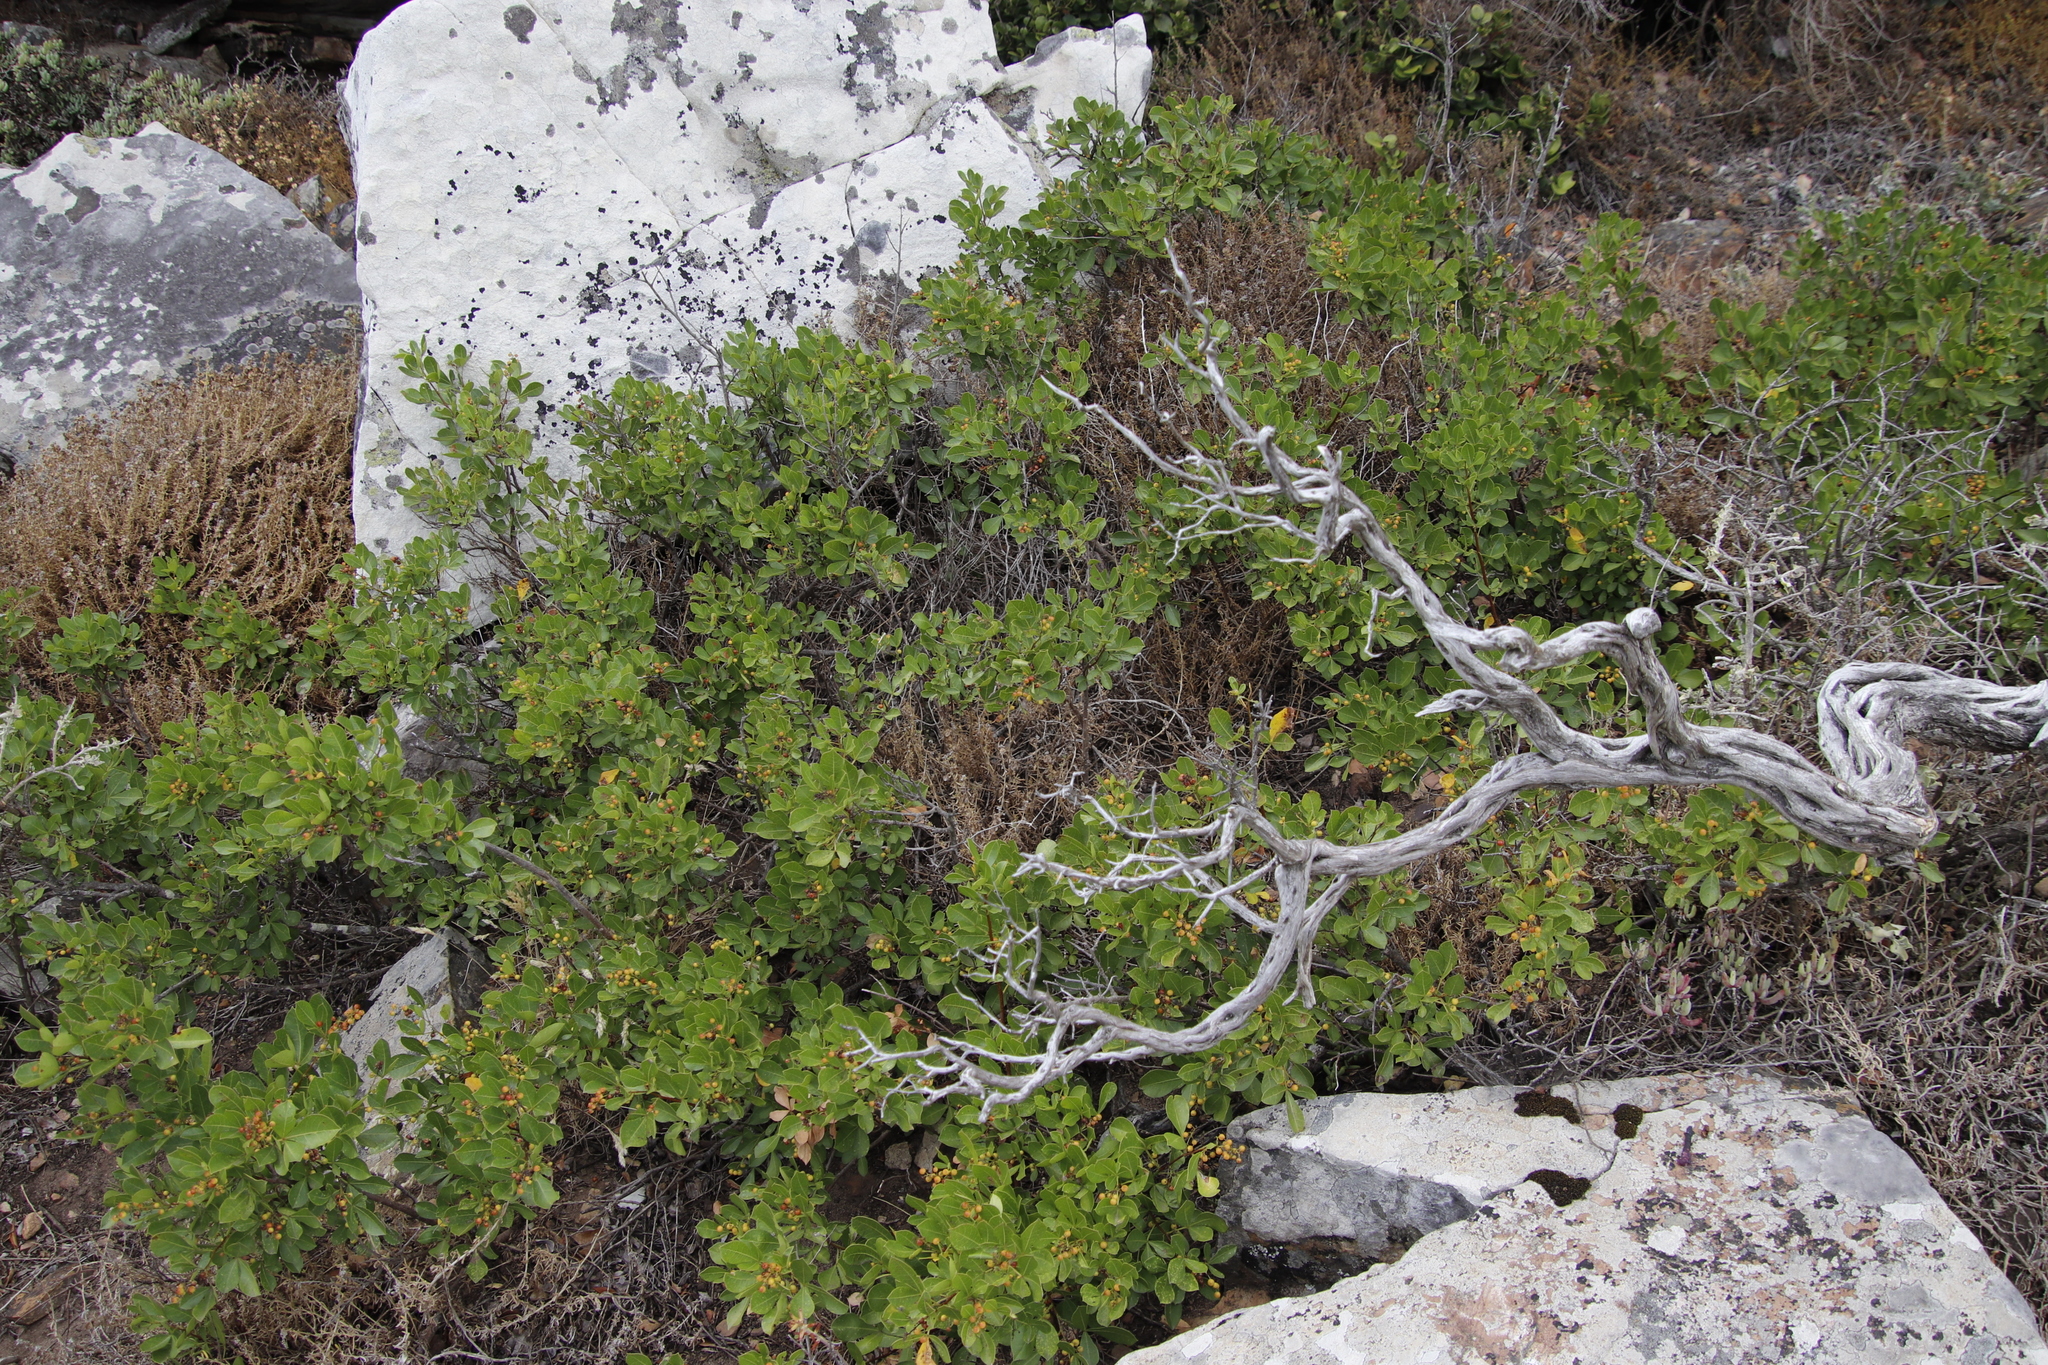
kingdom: Plantae
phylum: Tracheophyta
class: Magnoliopsida
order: Sapindales
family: Anacardiaceae
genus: Searsia
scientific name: Searsia laevigata
